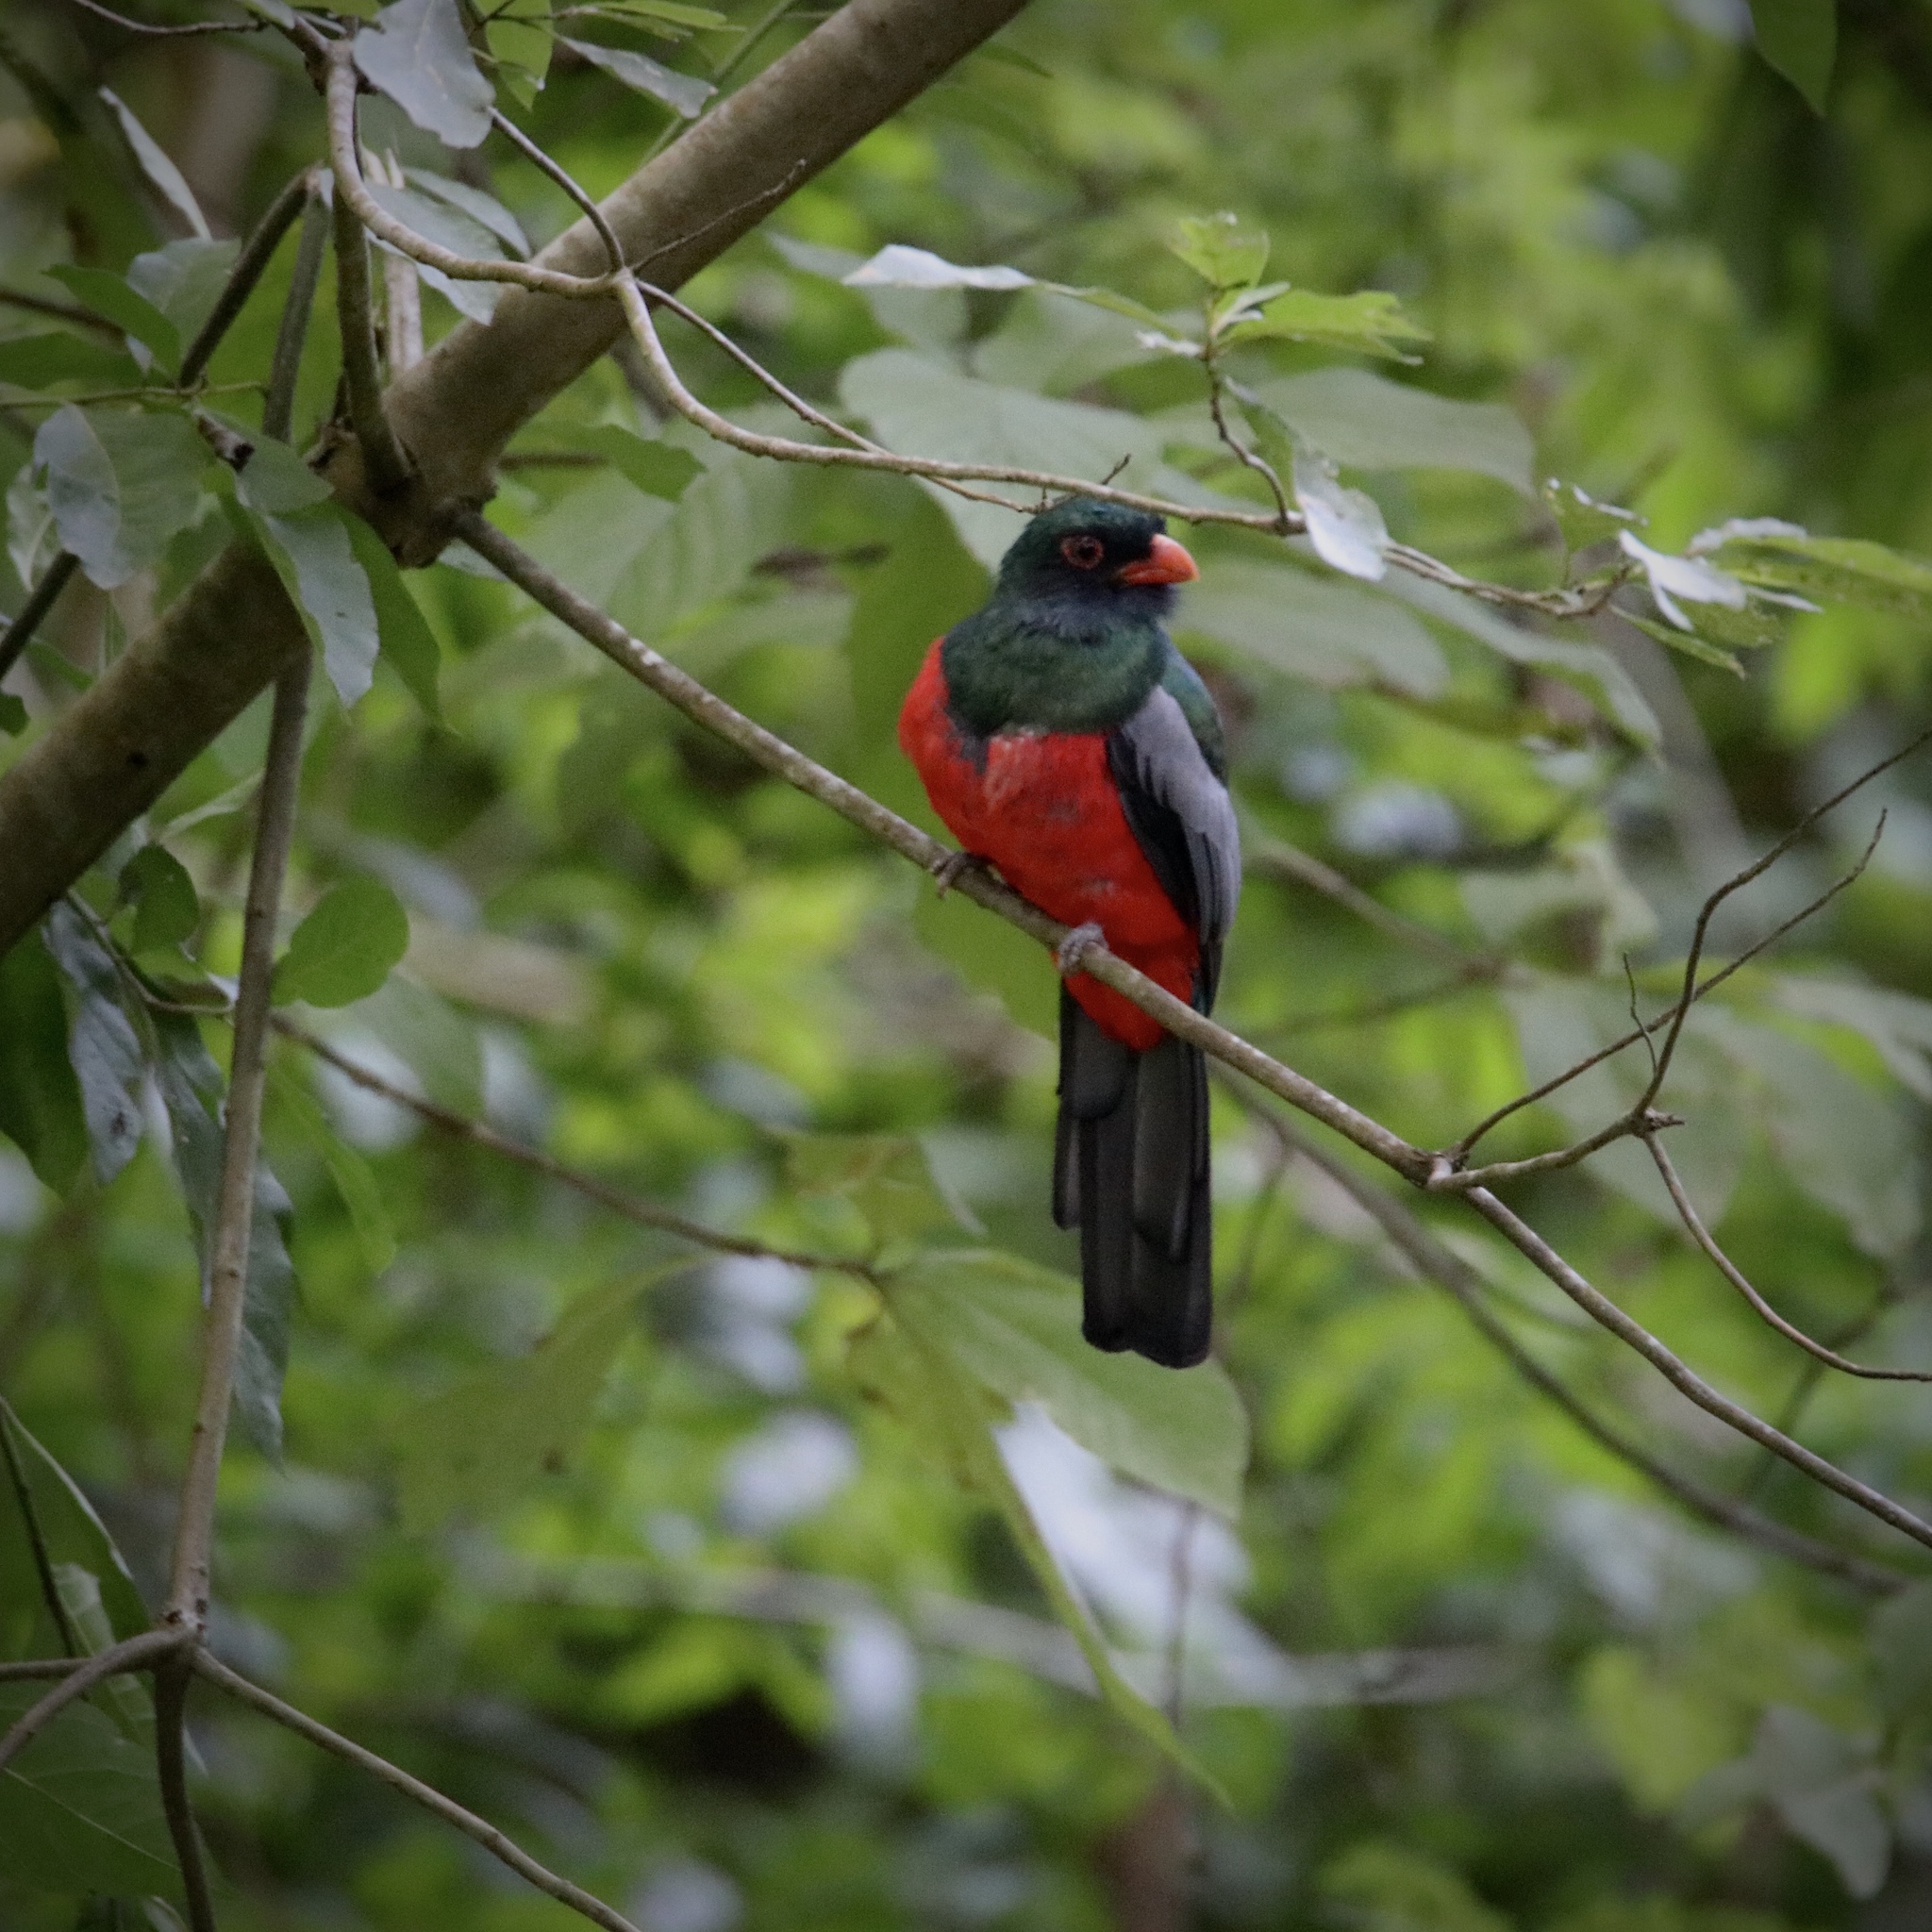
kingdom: Animalia
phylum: Chordata
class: Aves
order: Trogoniformes
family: Trogonidae
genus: Trogon
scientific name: Trogon massena
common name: Slaty-tailed trogon
